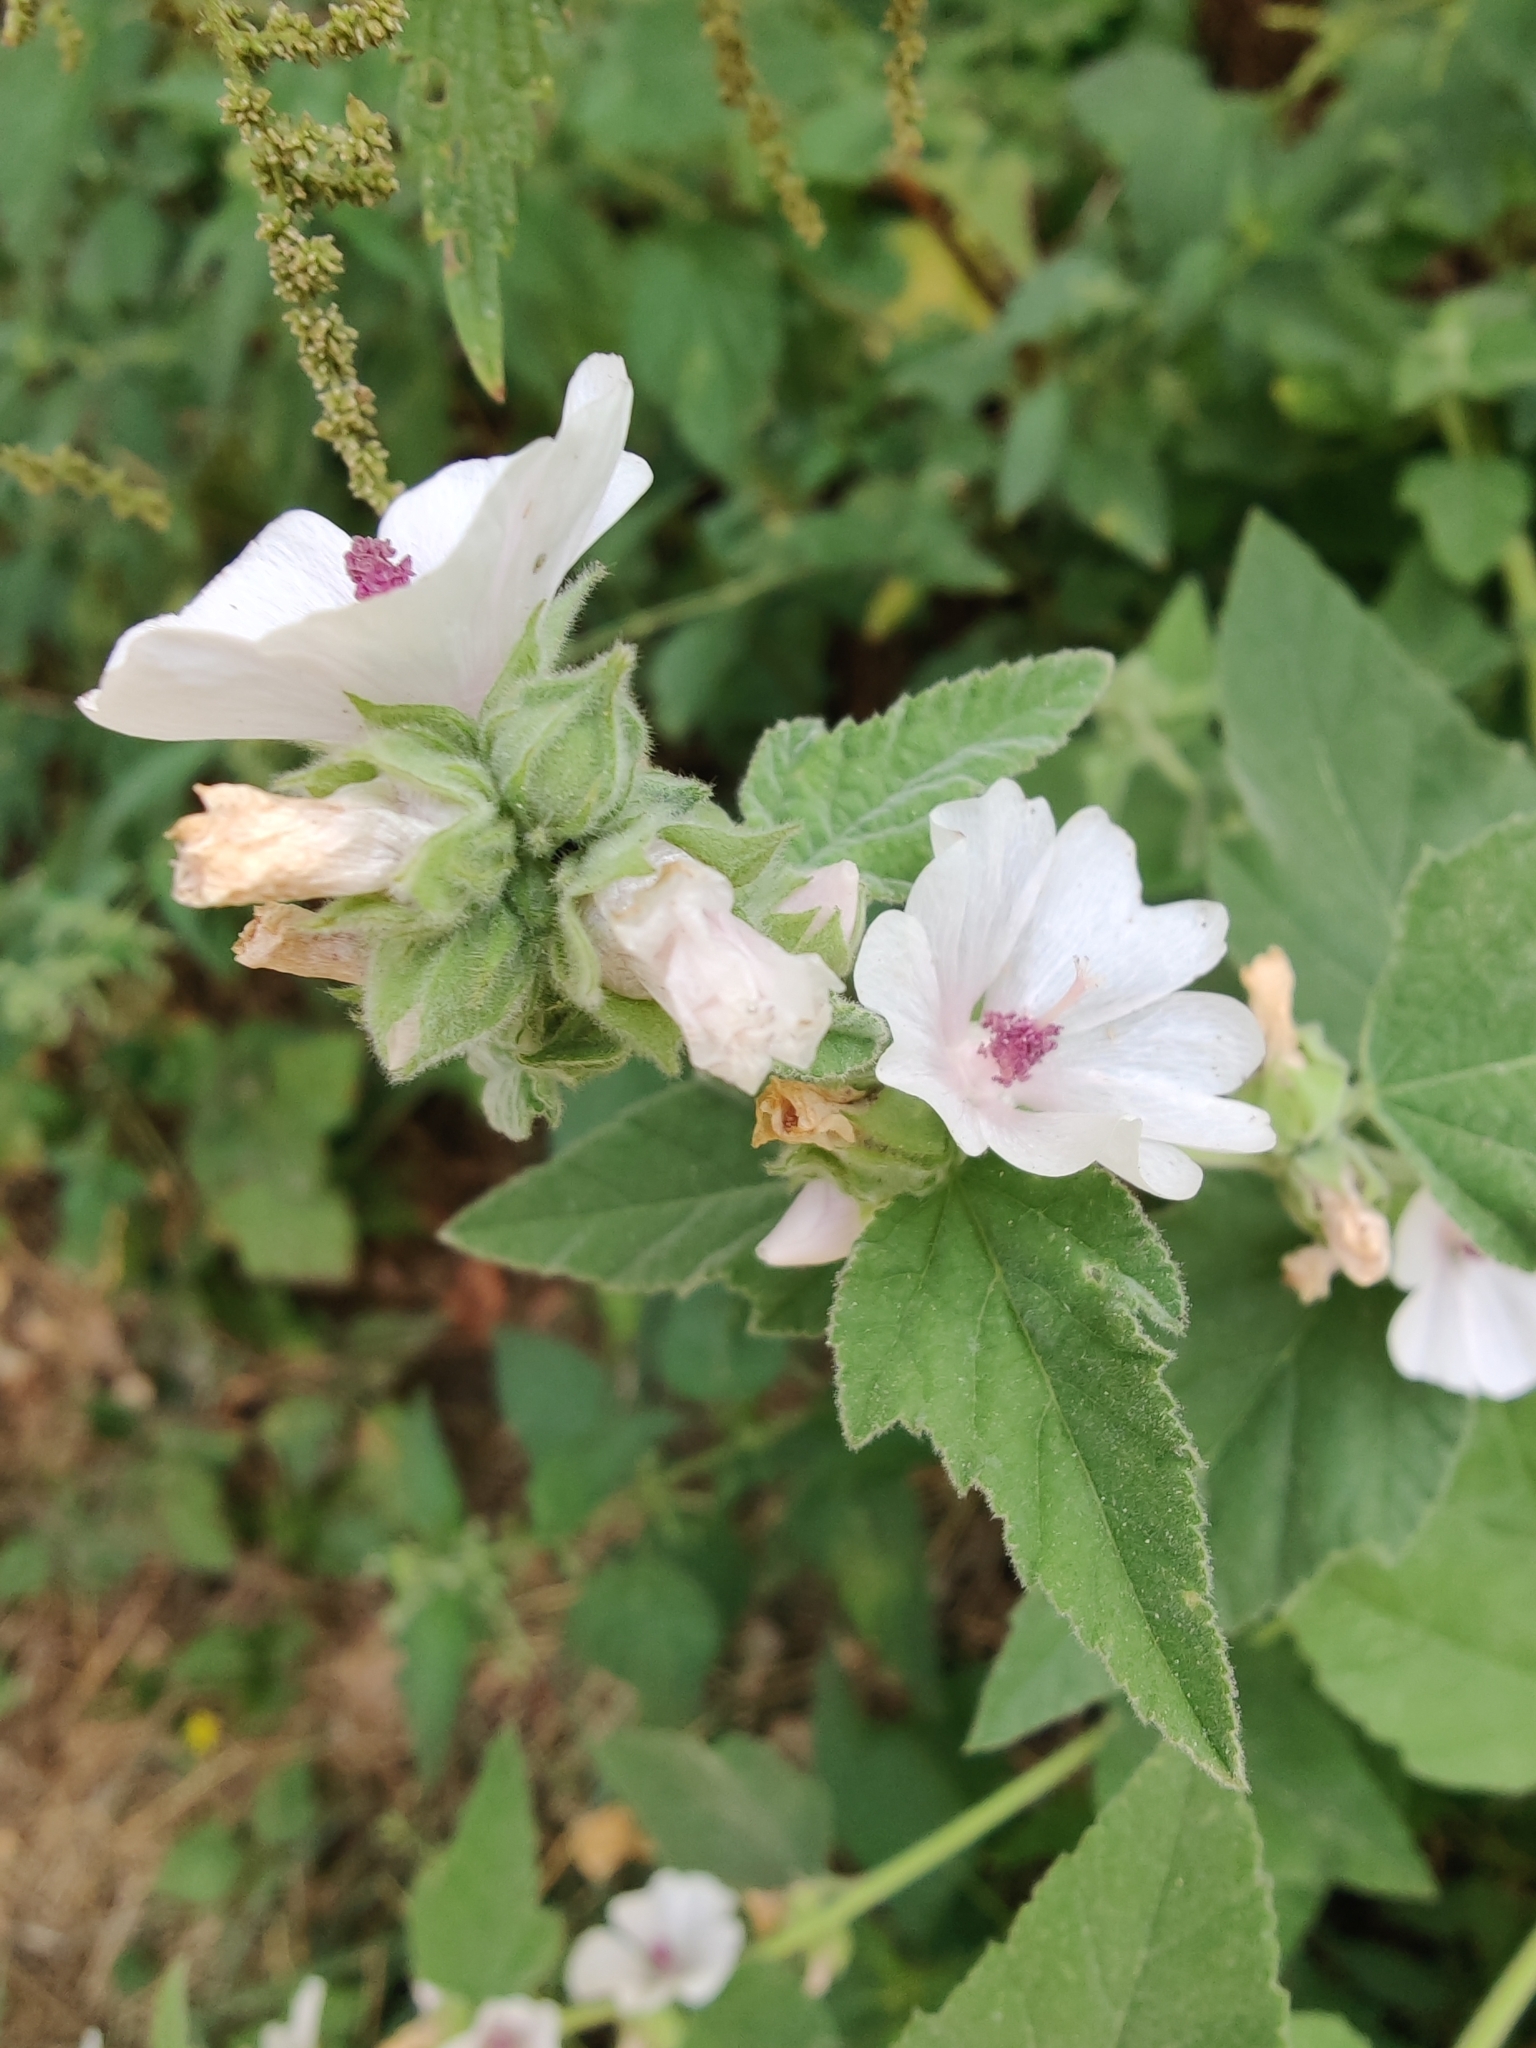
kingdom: Plantae
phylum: Tracheophyta
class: Magnoliopsida
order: Malvales
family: Malvaceae
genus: Althaea
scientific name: Althaea officinalis
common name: Marsh-mallow
